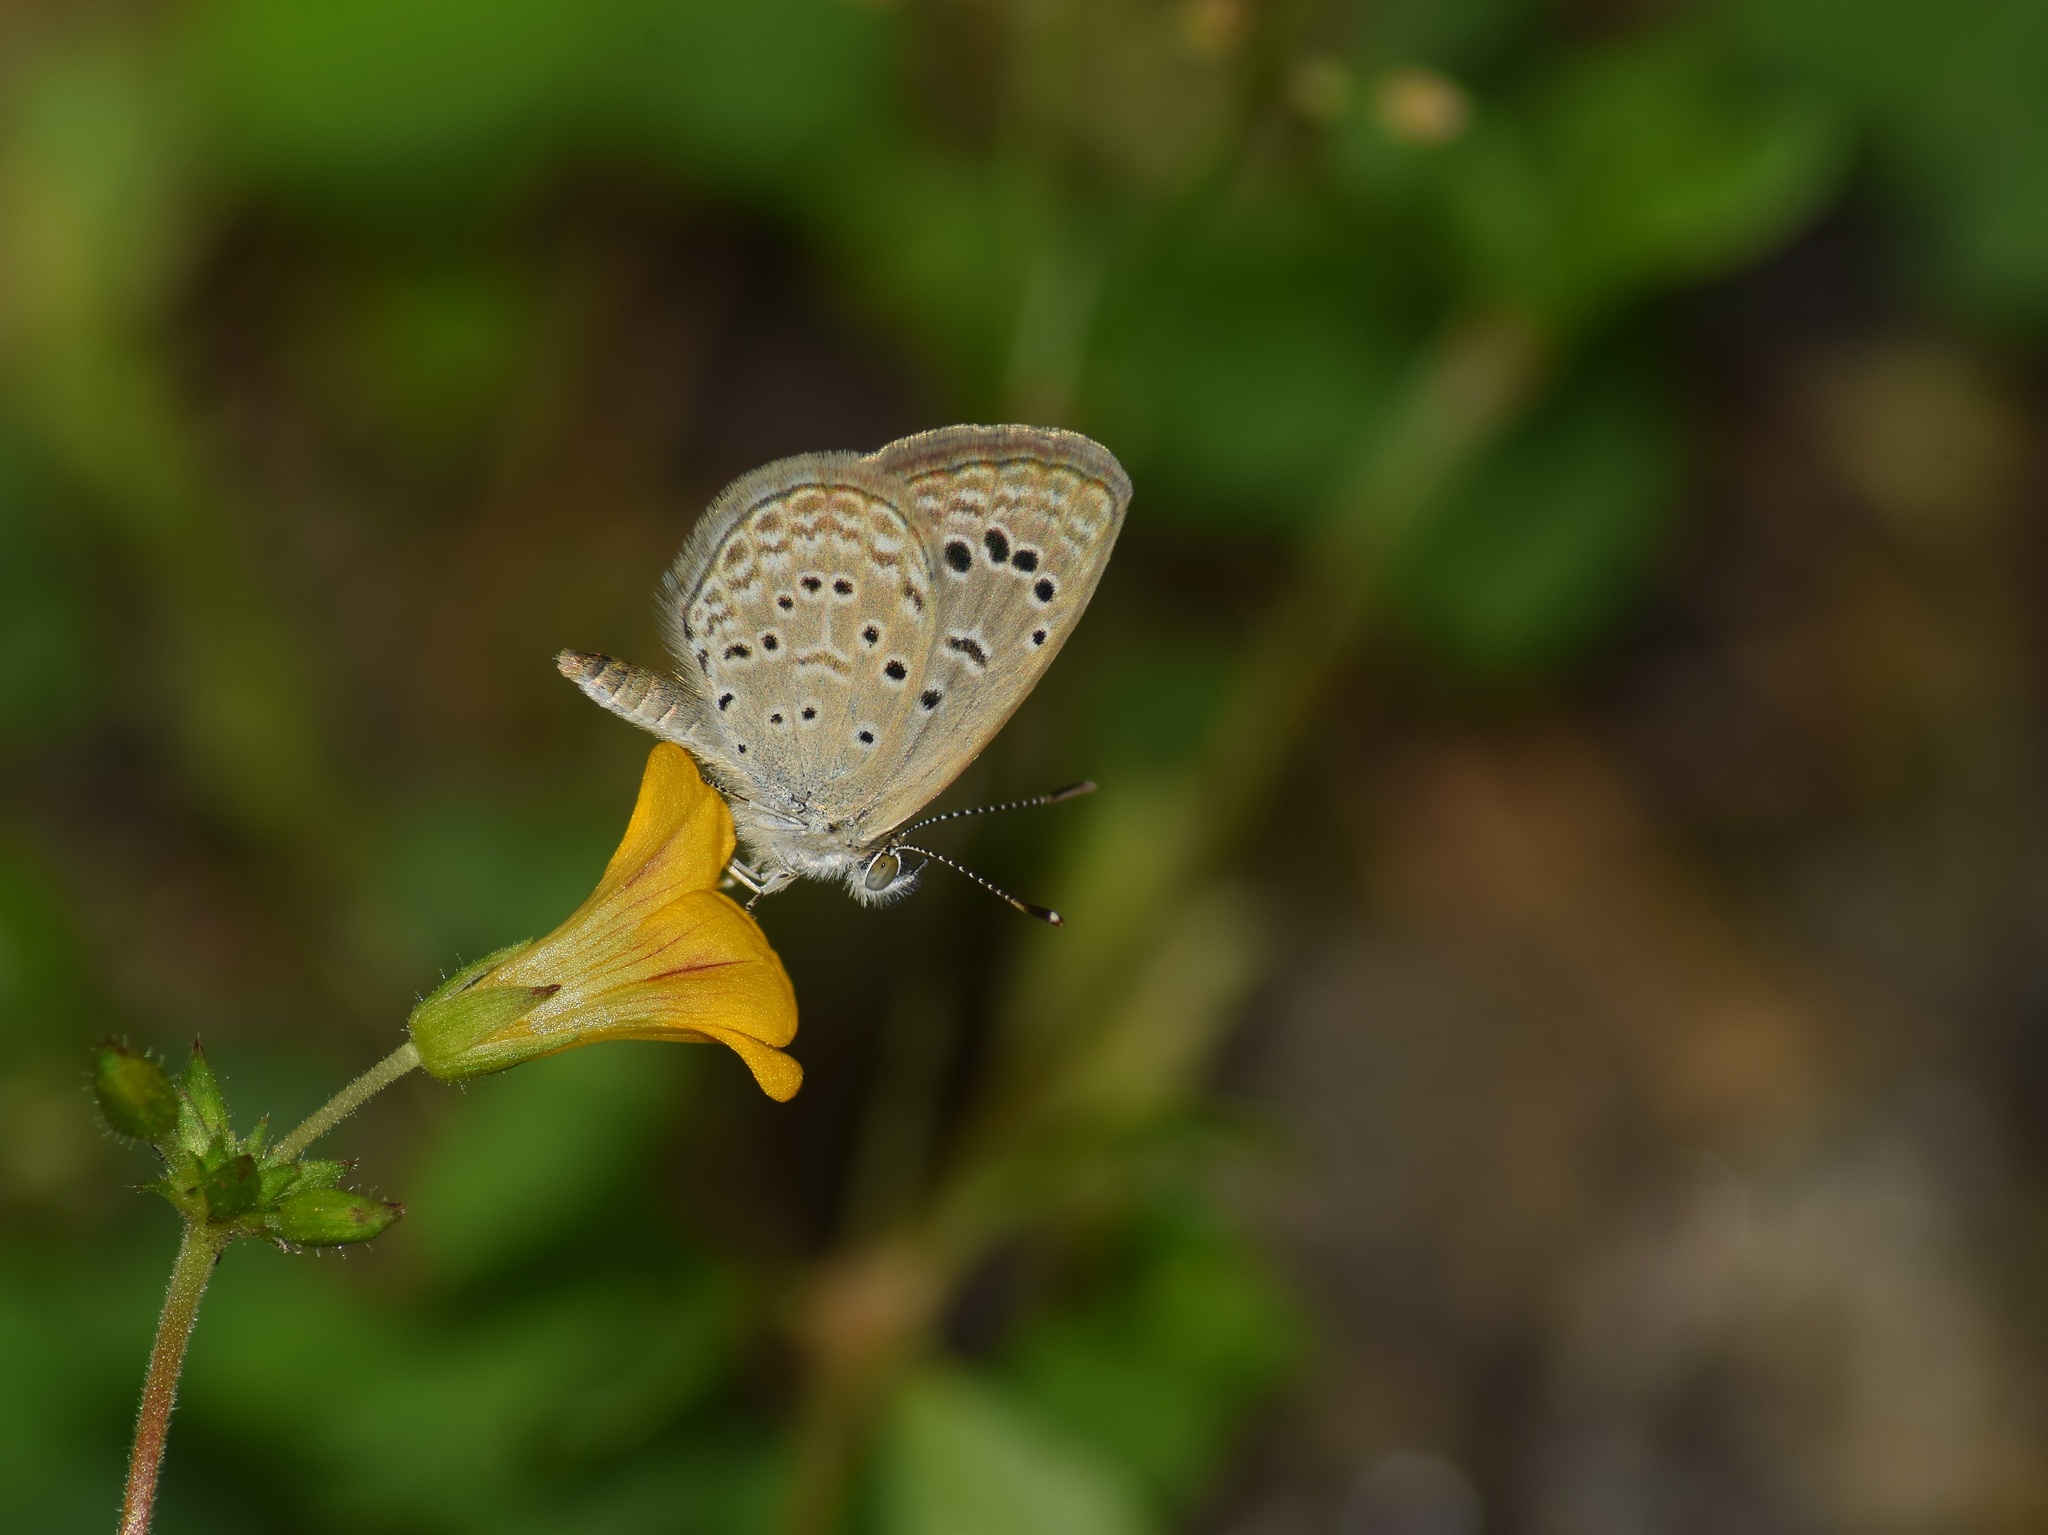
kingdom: Animalia
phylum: Arthropoda
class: Insecta
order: Lepidoptera
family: Lycaenidae
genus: Zizeeria
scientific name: Zizeeria karsandra
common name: Dark grass blue
